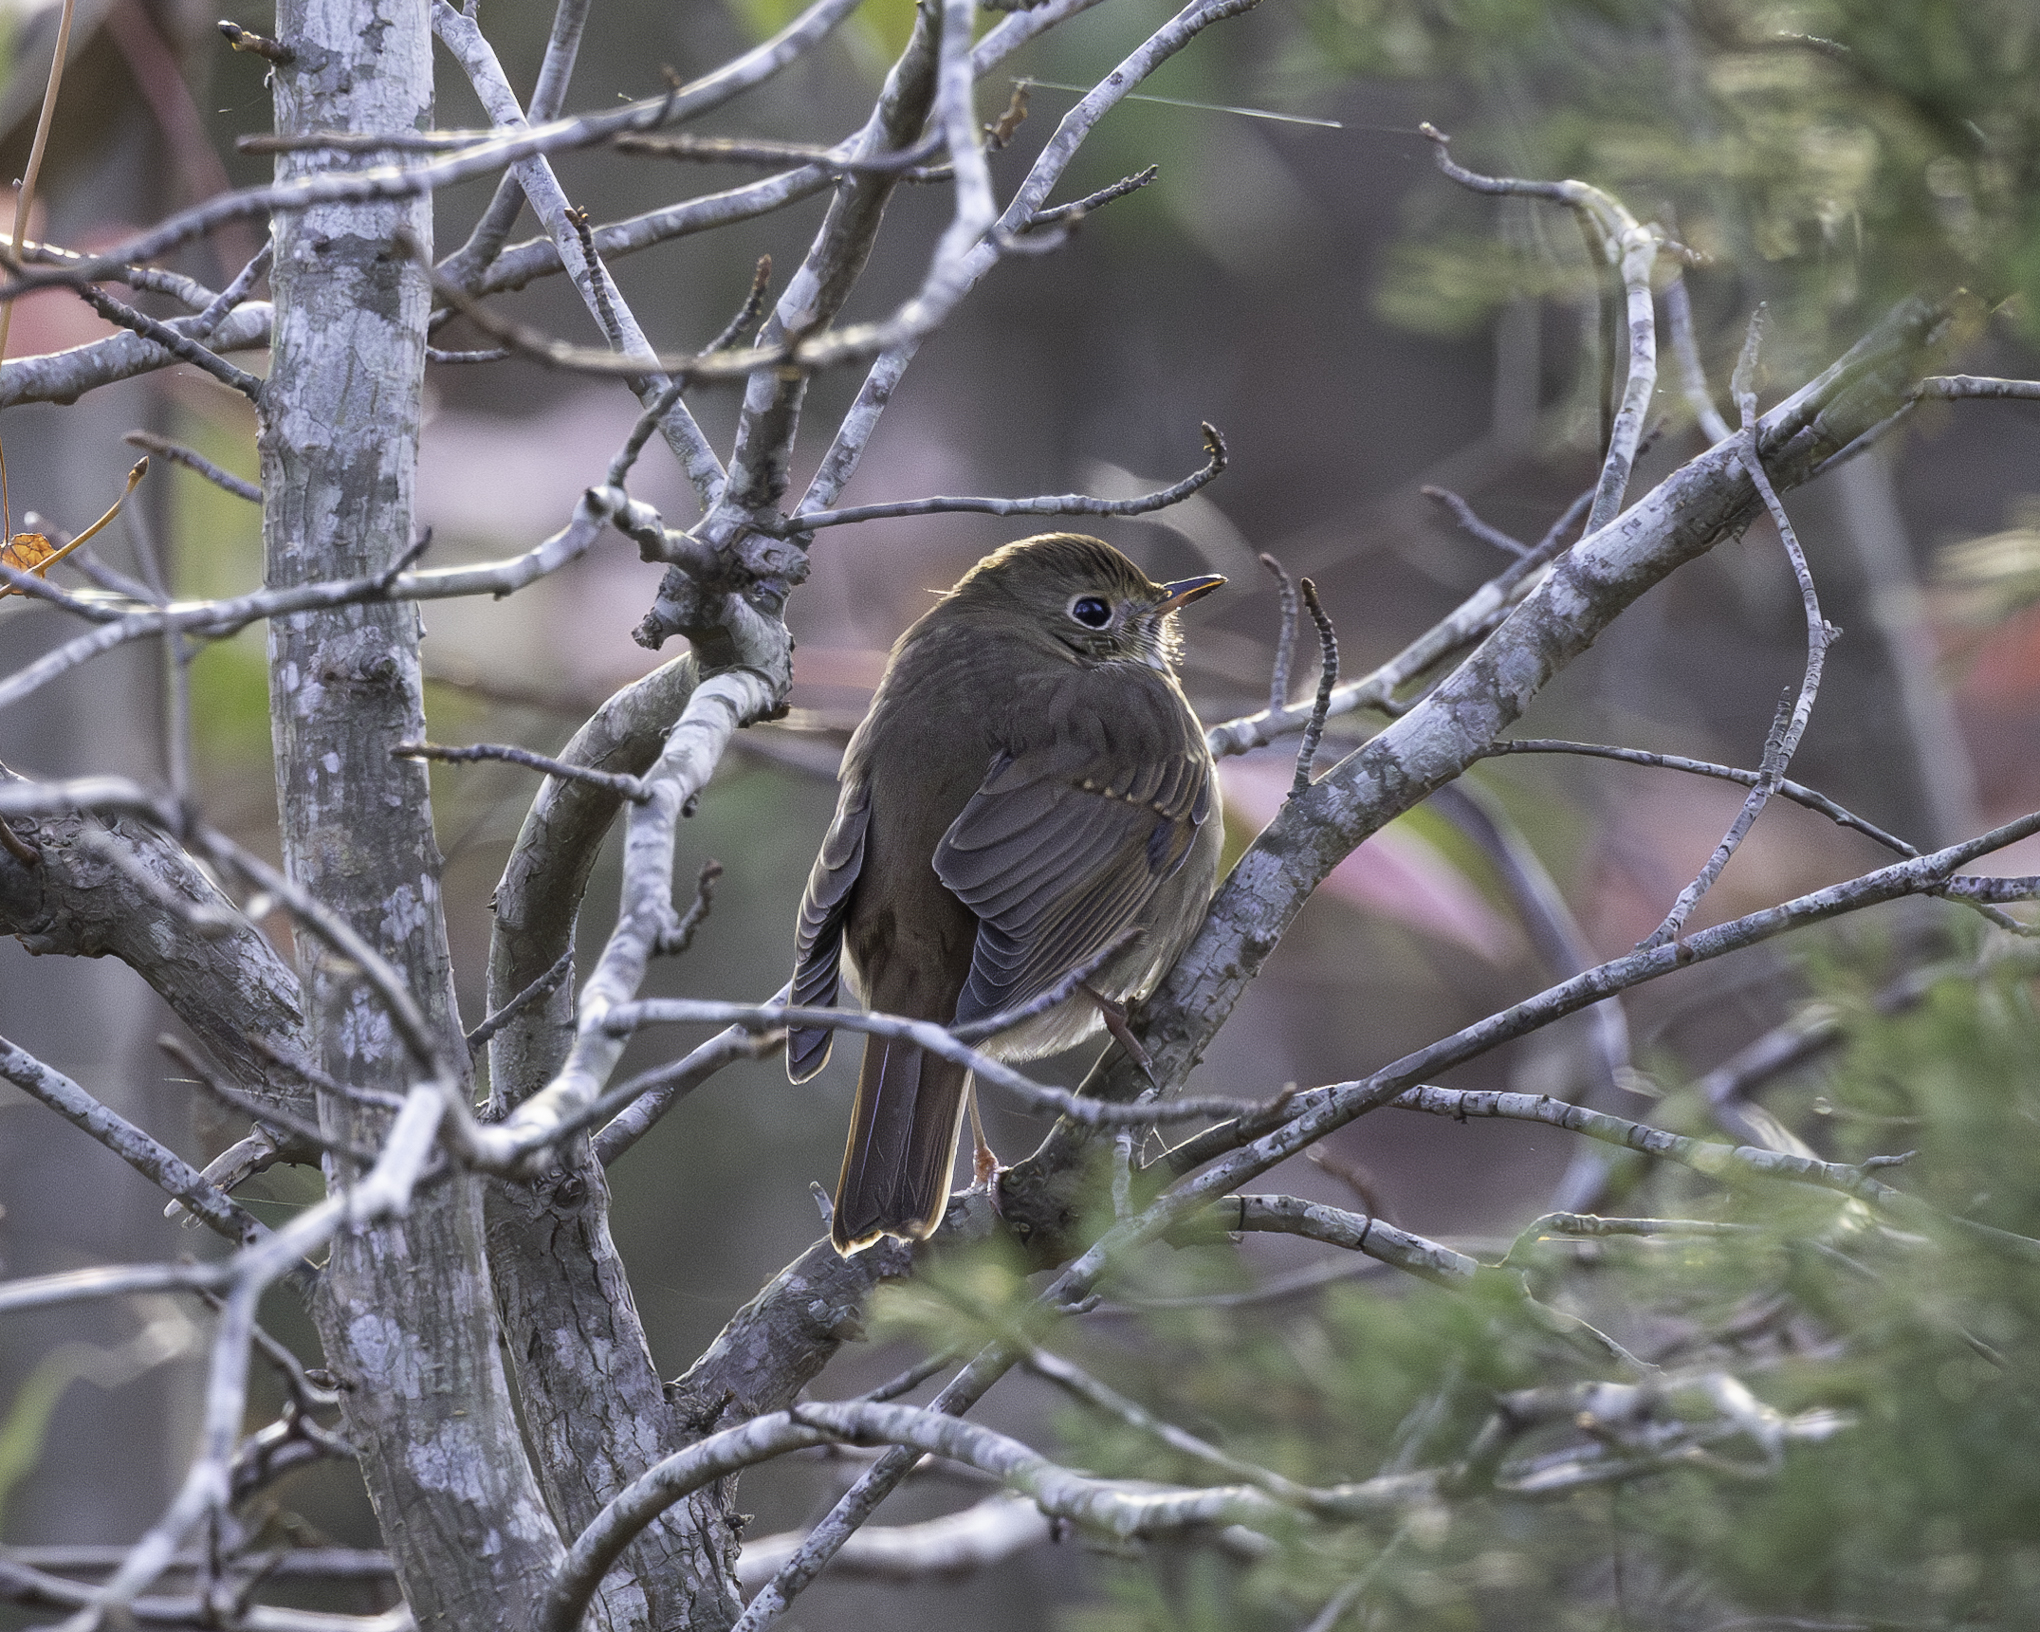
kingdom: Animalia
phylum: Chordata
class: Aves
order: Passeriformes
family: Turdidae
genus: Catharus
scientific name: Catharus guttatus
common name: Hermit thrush
